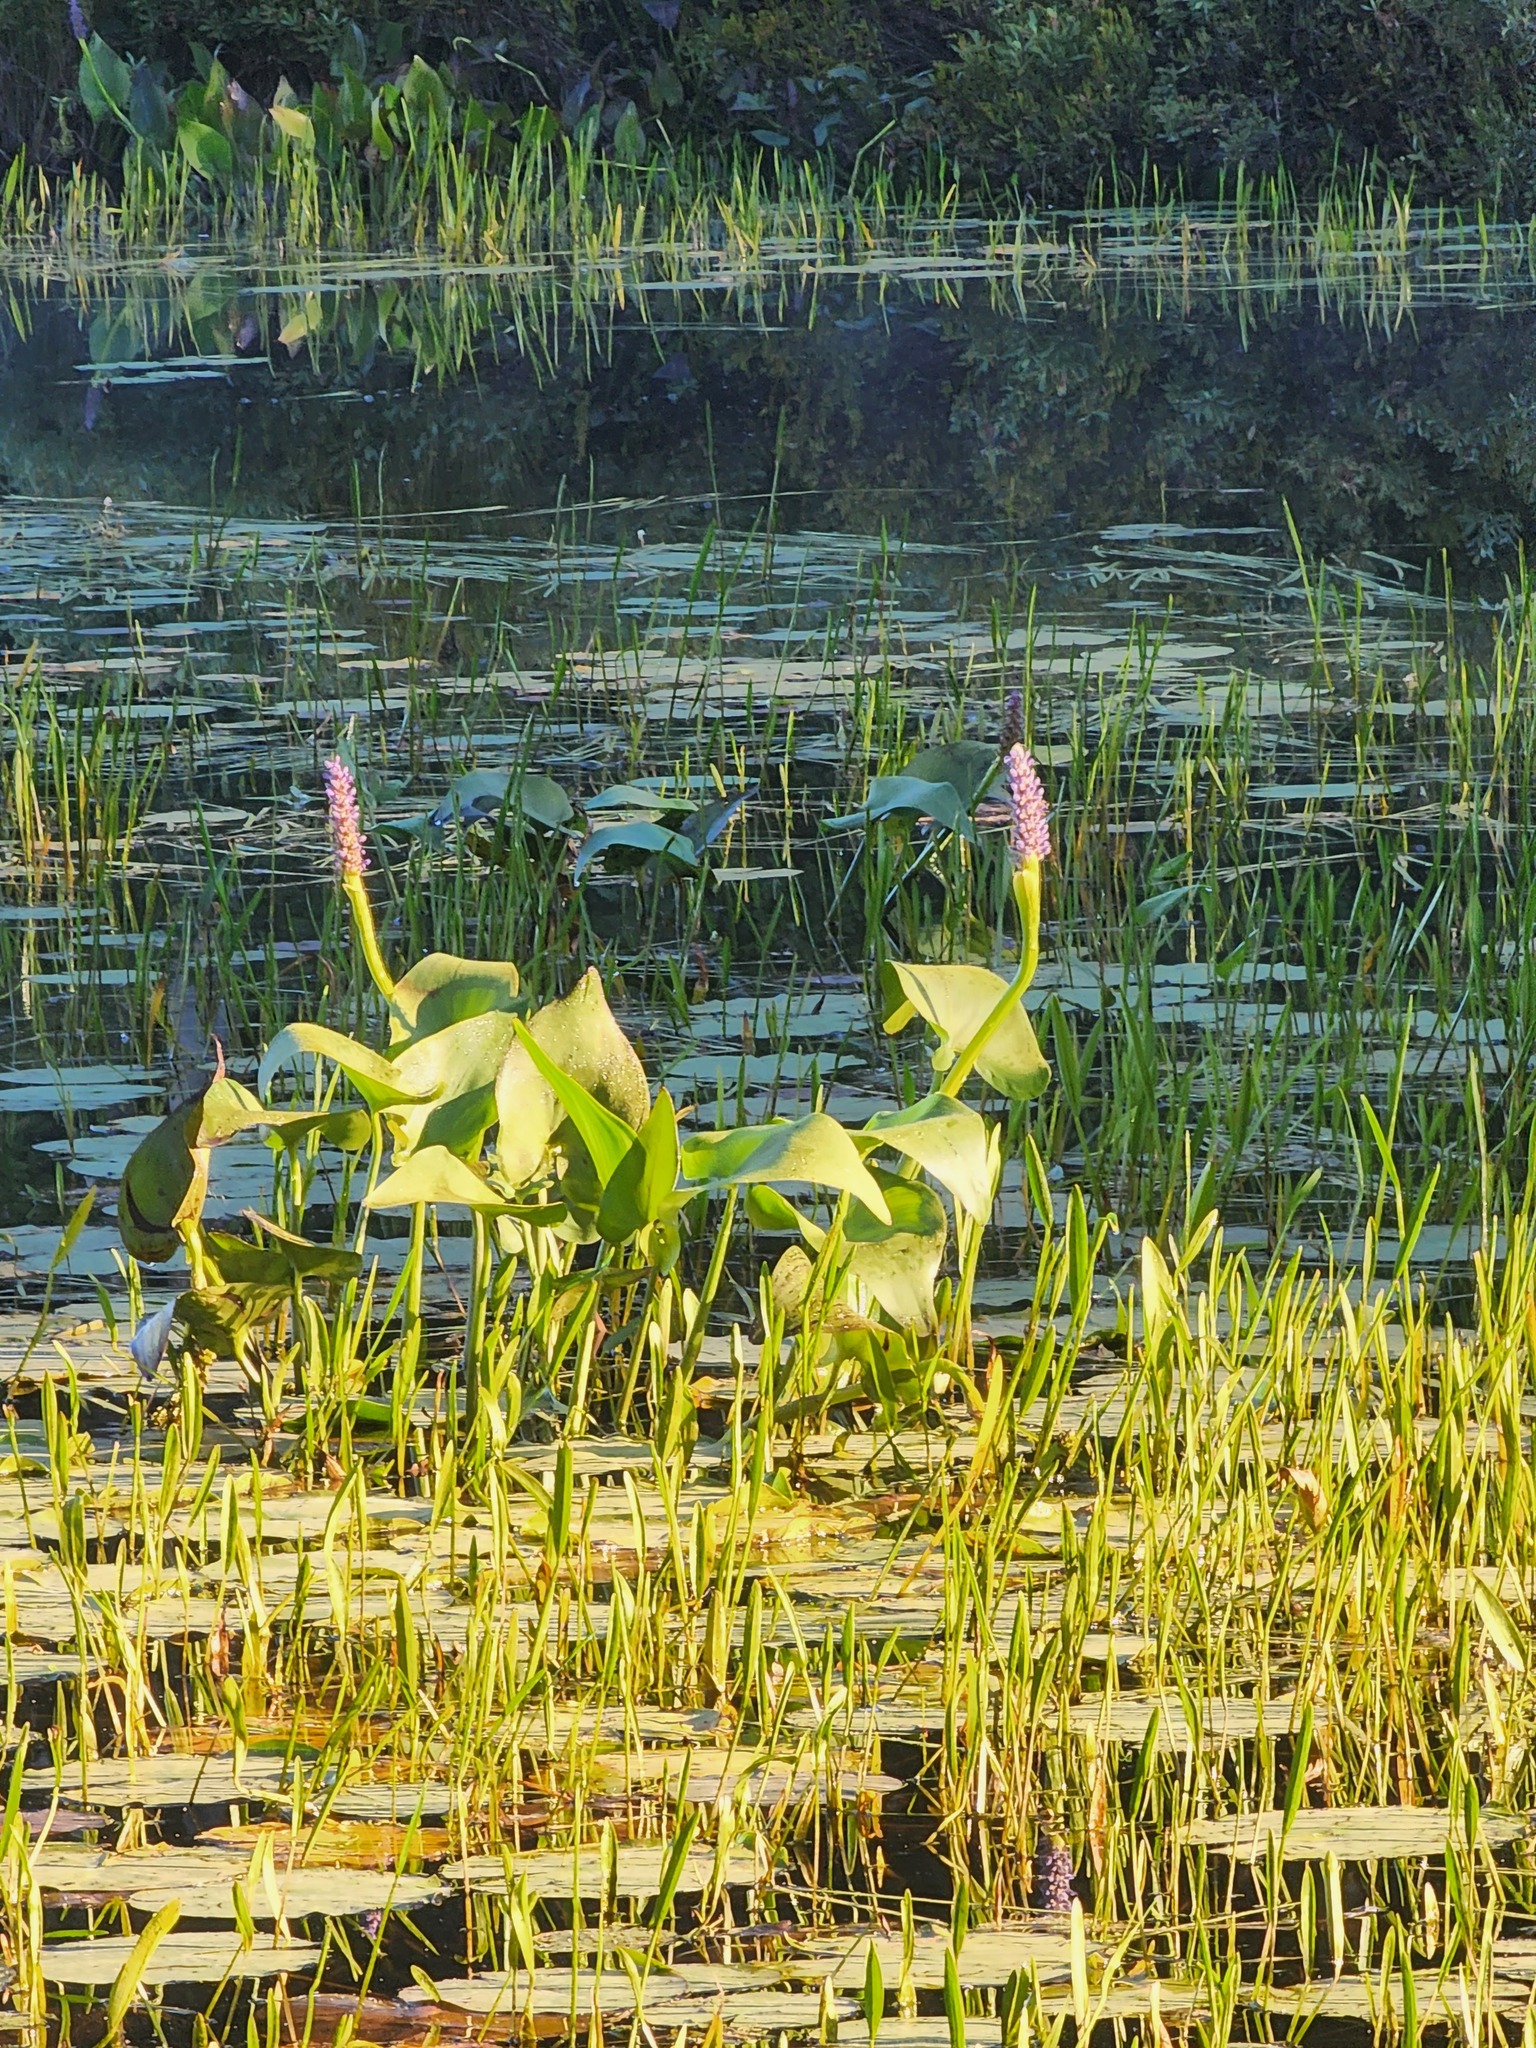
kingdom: Plantae
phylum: Tracheophyta
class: Liliopsida
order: Commelinales
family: Pontederiaceae
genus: Pontederia
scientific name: Pontederia cordata
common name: Pickerelweed
